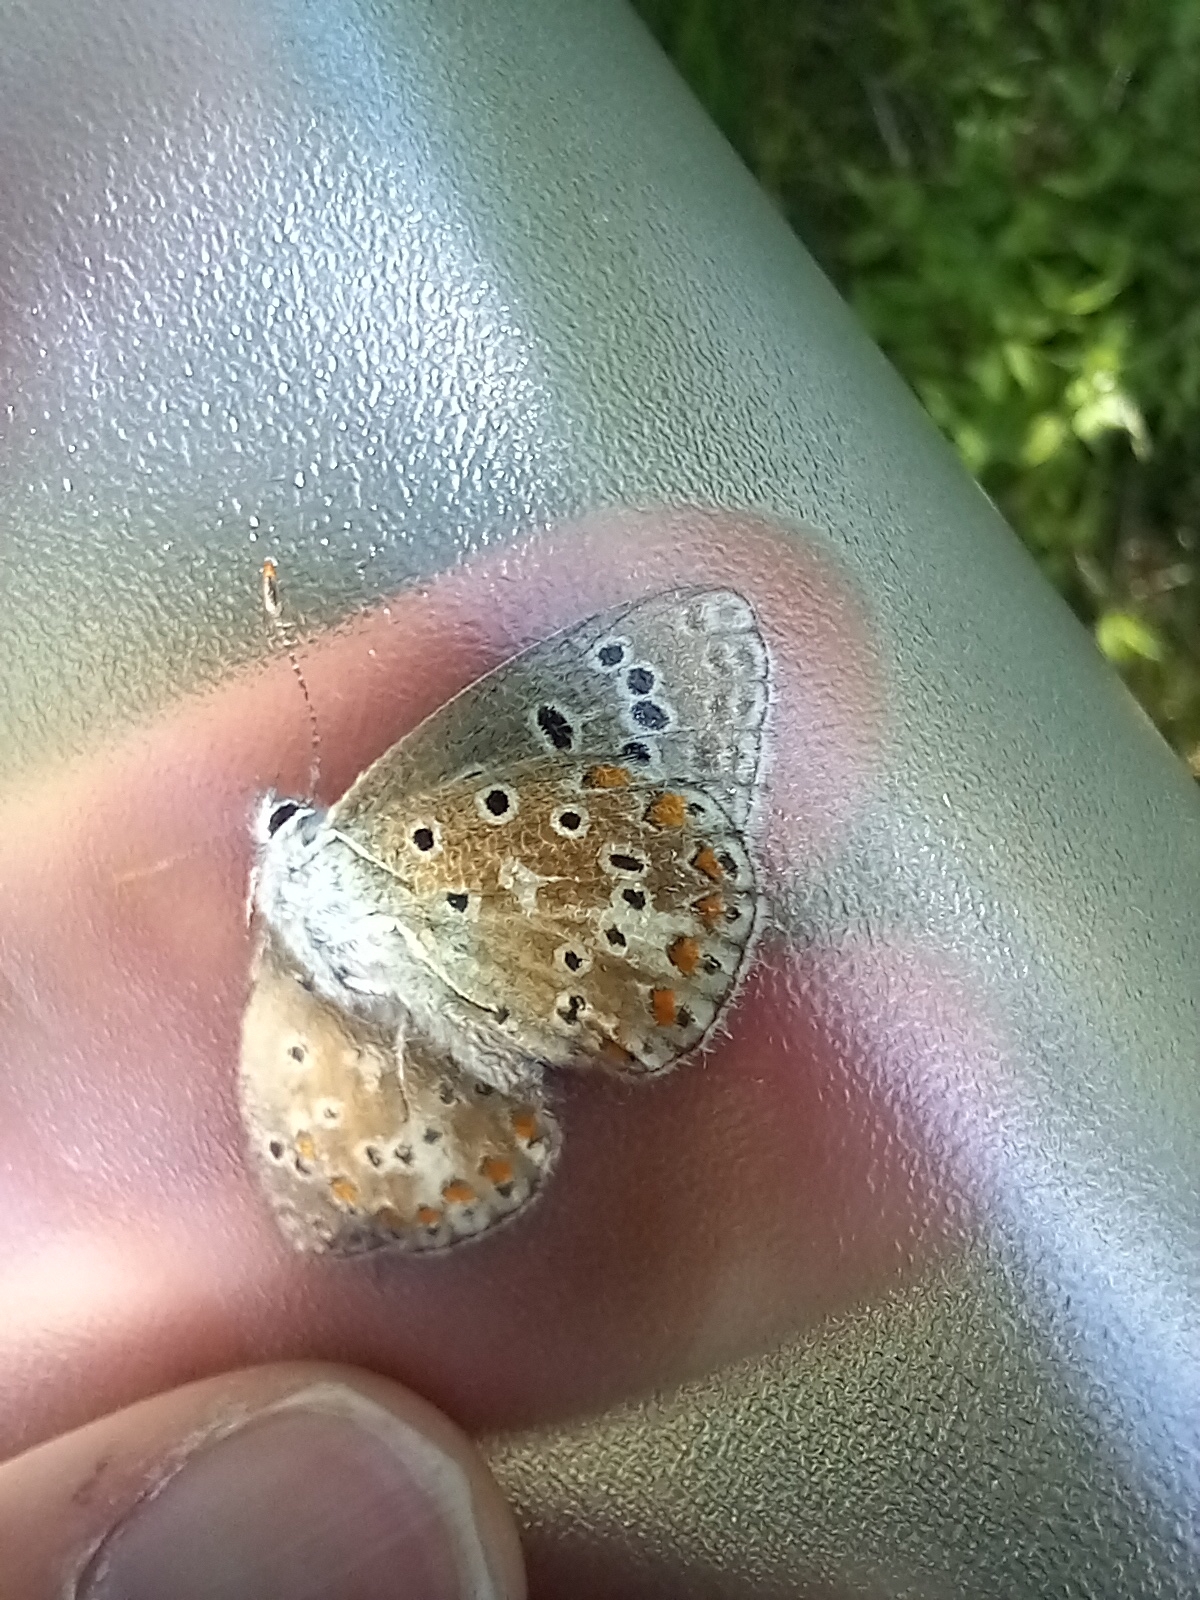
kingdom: Animalia
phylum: Arthropoda
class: Insecta
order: Lepidoptera
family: Lycaenidae
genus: Lysandra
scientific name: Lysandra bellargus
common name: Adonis blue
